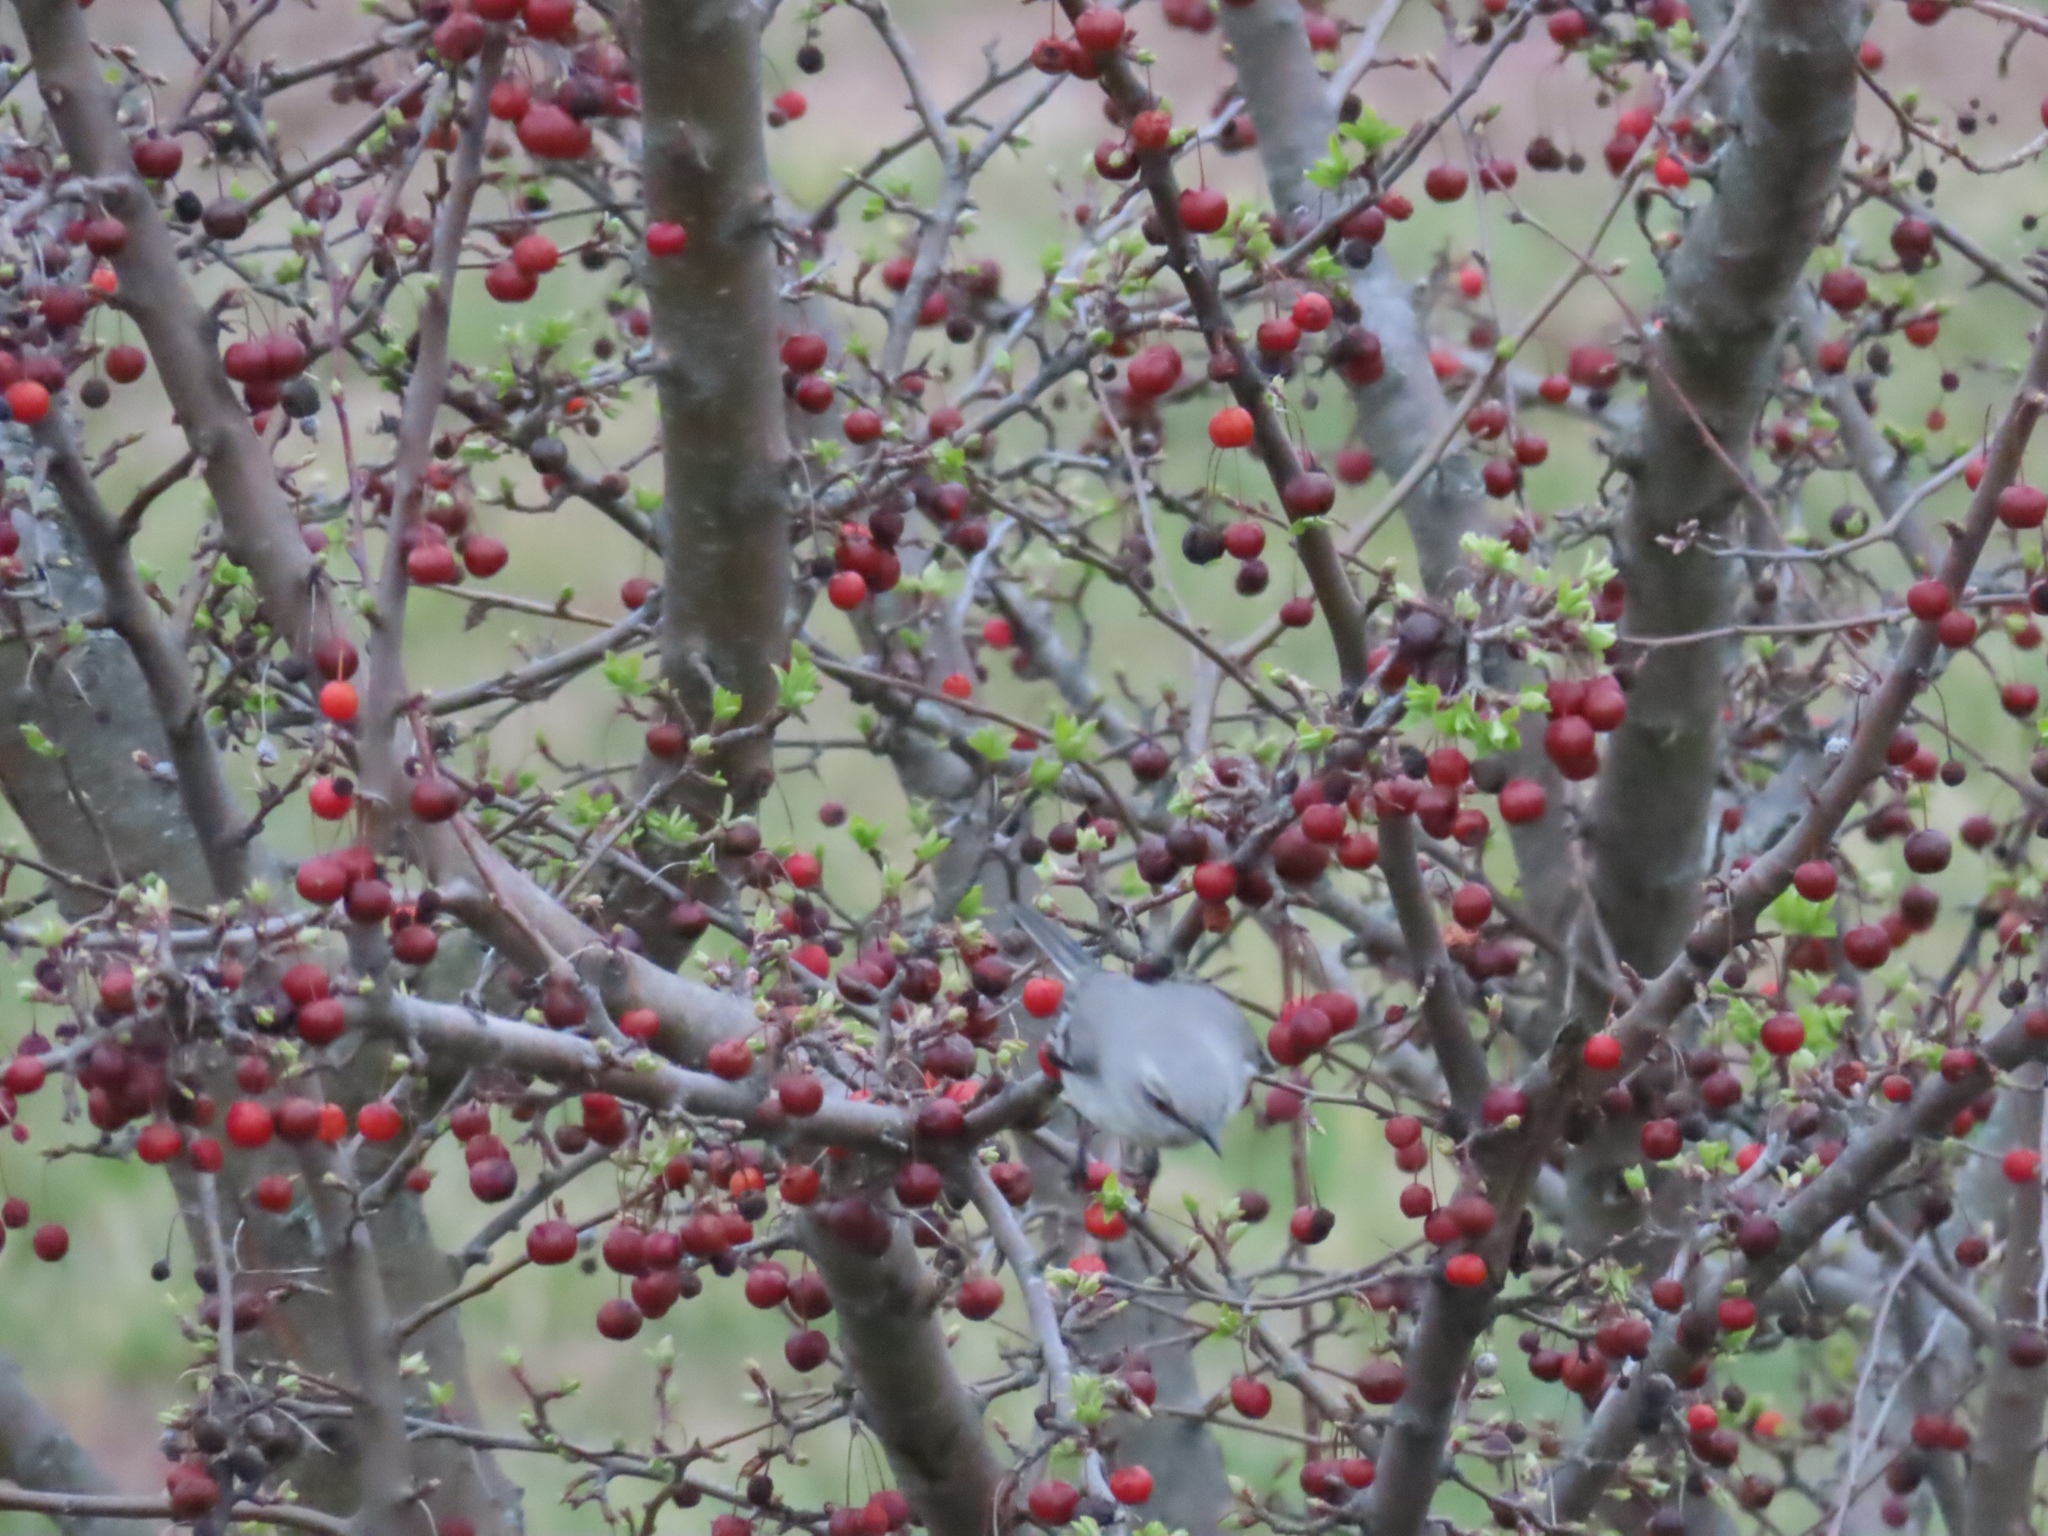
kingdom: Animalia
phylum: Chordata
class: Aves
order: Passeriformes
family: Mimidae
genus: Mimus
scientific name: Mimus polyglottos
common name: Northern mockingbird
